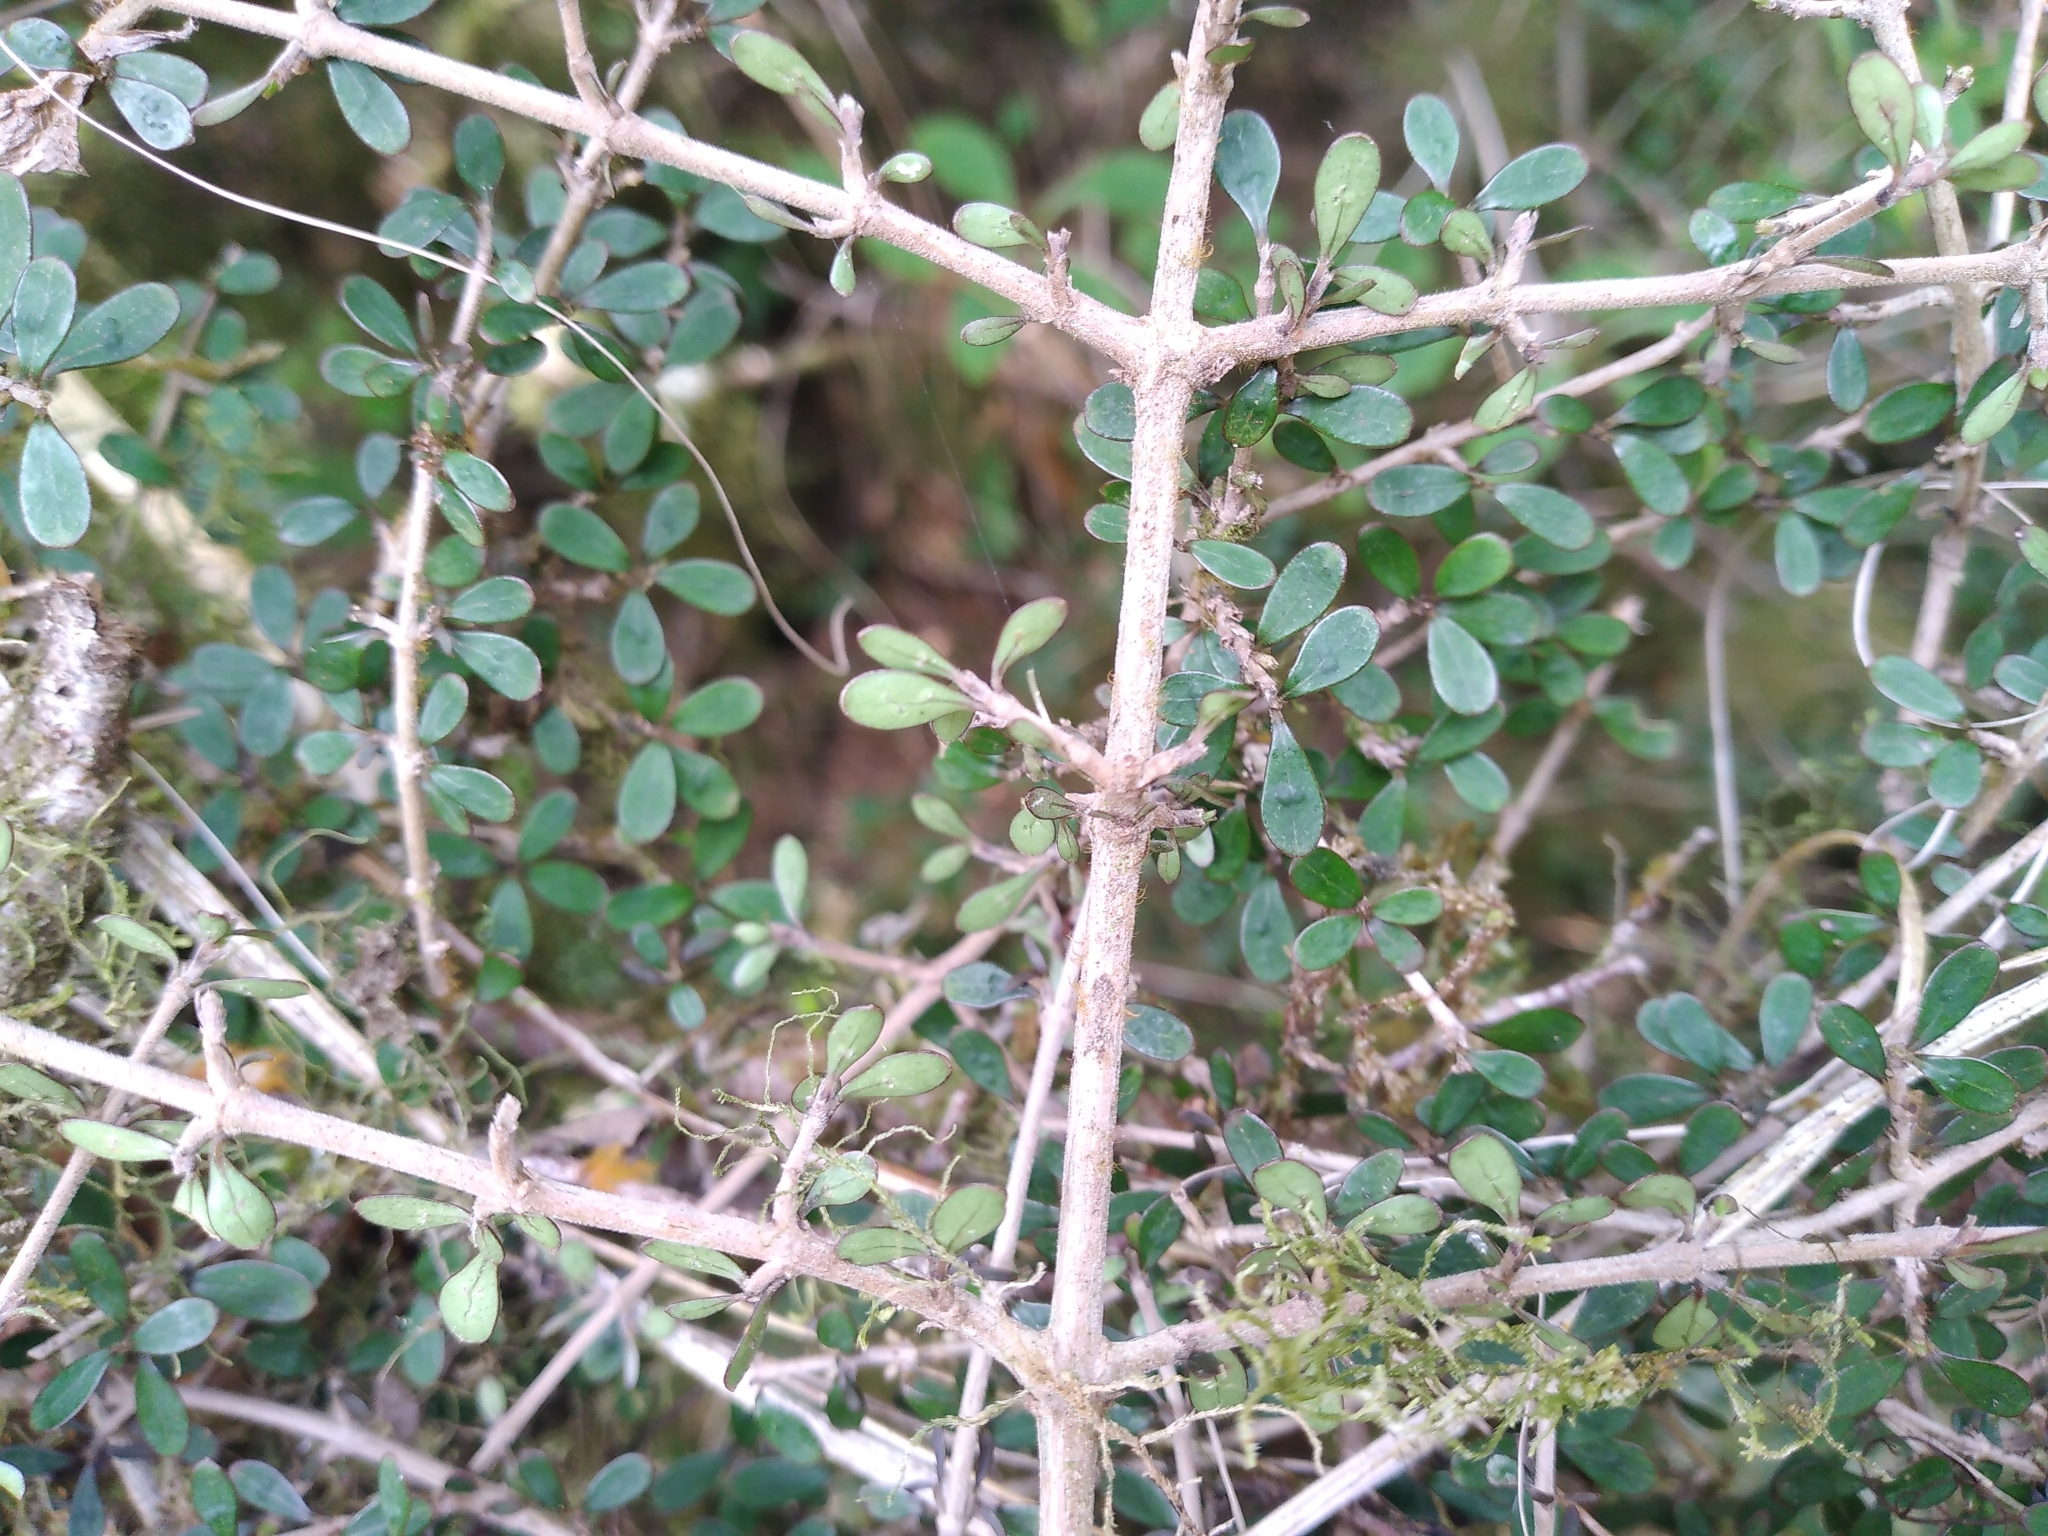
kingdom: Plantae
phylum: Tracheophyta
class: Magnoliopsida
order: Gentianales
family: Rubiaceae
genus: Coprosma
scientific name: Coprosma dumosa
